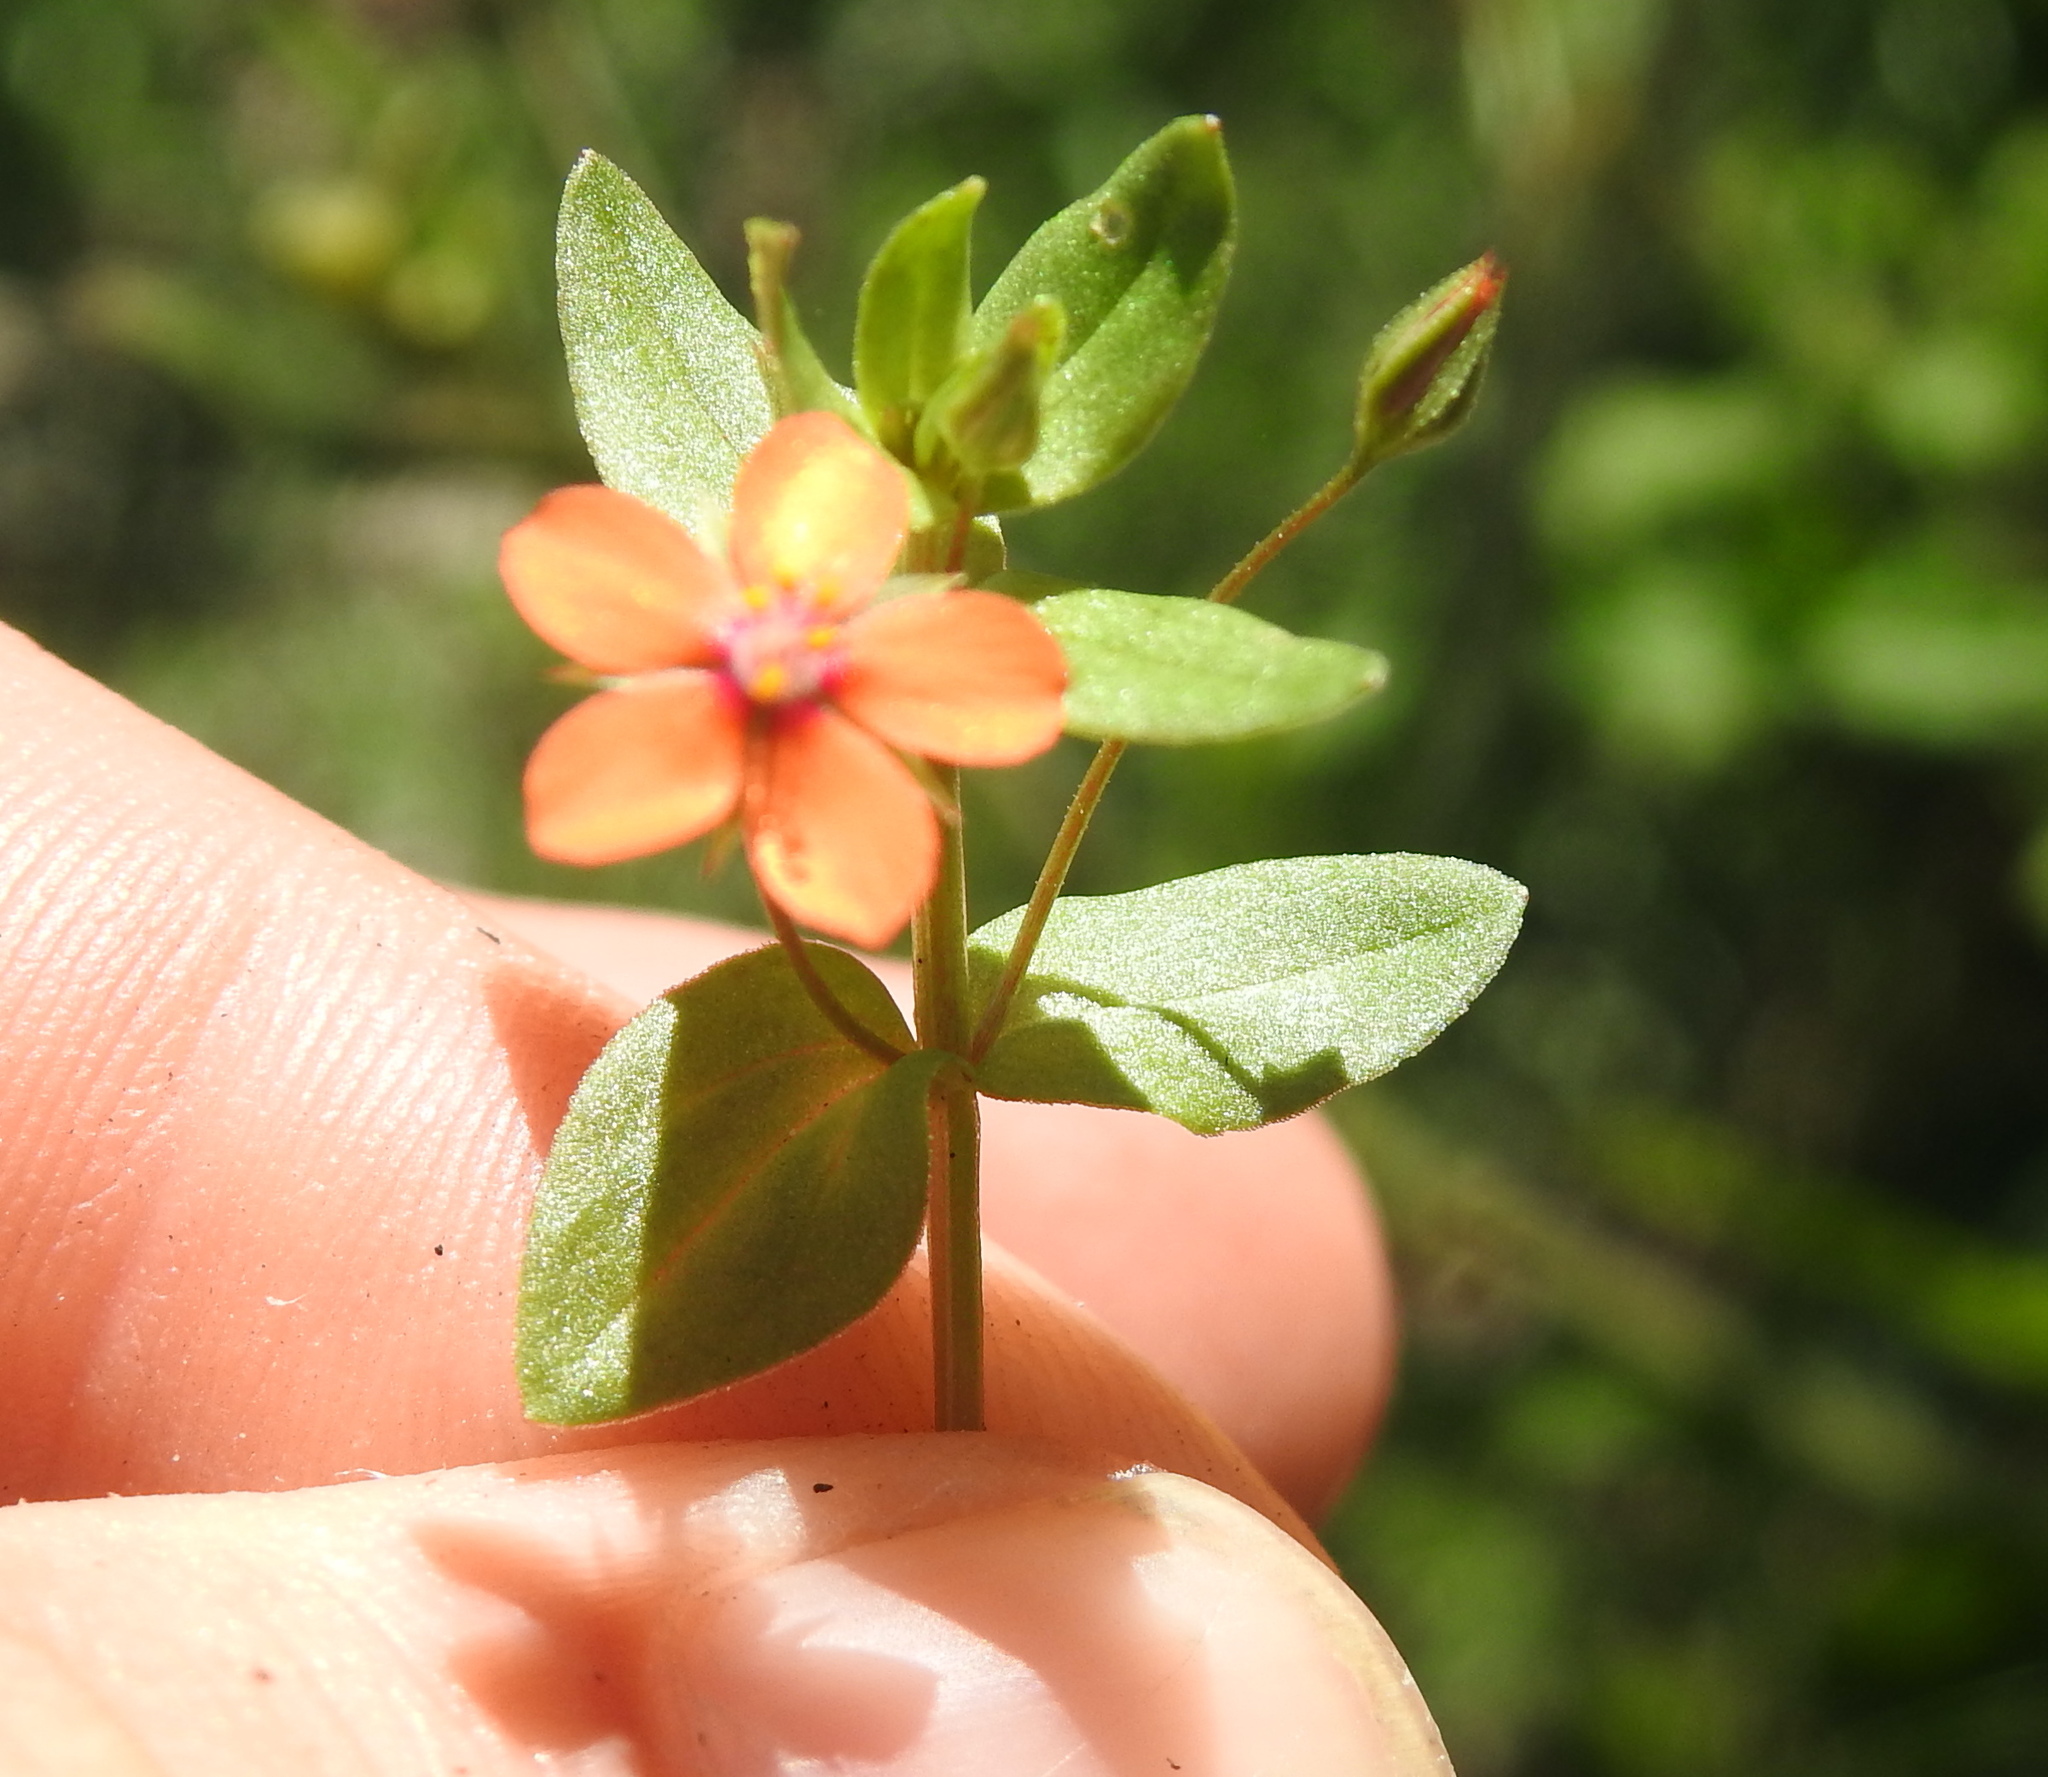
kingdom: Plantae
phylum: Tracheophyta
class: Magnoliopsida
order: Ericales
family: Primulaceae
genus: Lysimachia
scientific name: Lysimachia arvensis
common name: Scarlet pimpernel
